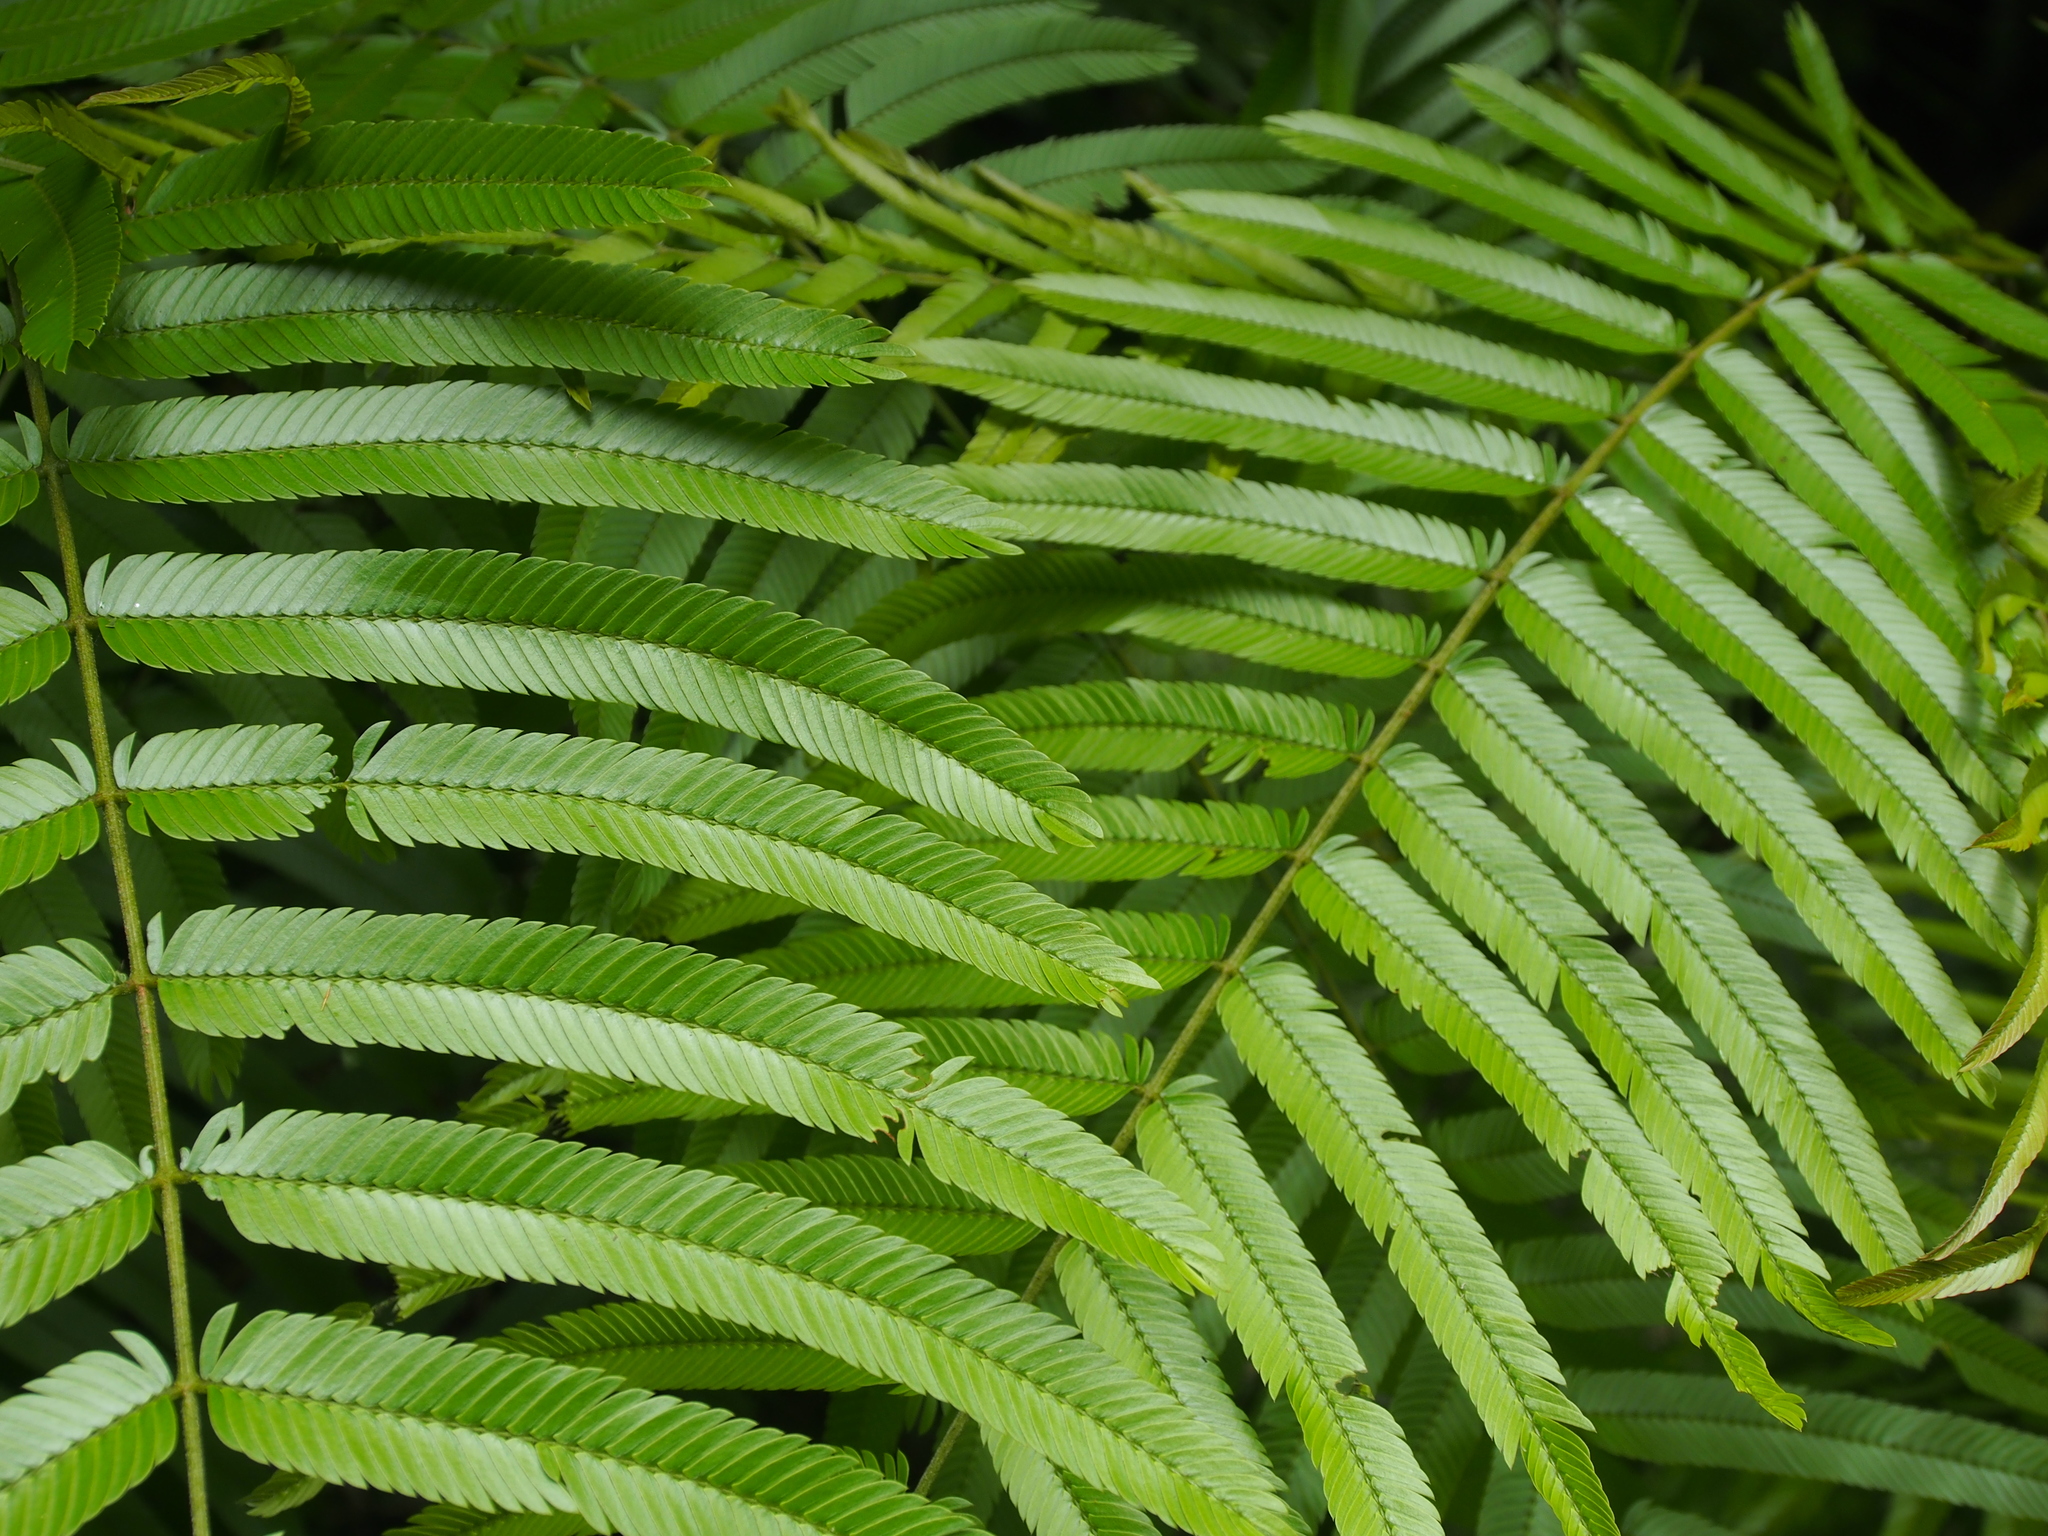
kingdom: Plantae
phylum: Tracheophyta
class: Magnoliopsida
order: Fabales
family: Fabaceae
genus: Pentaclethra
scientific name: Pentaclethra macroloba
